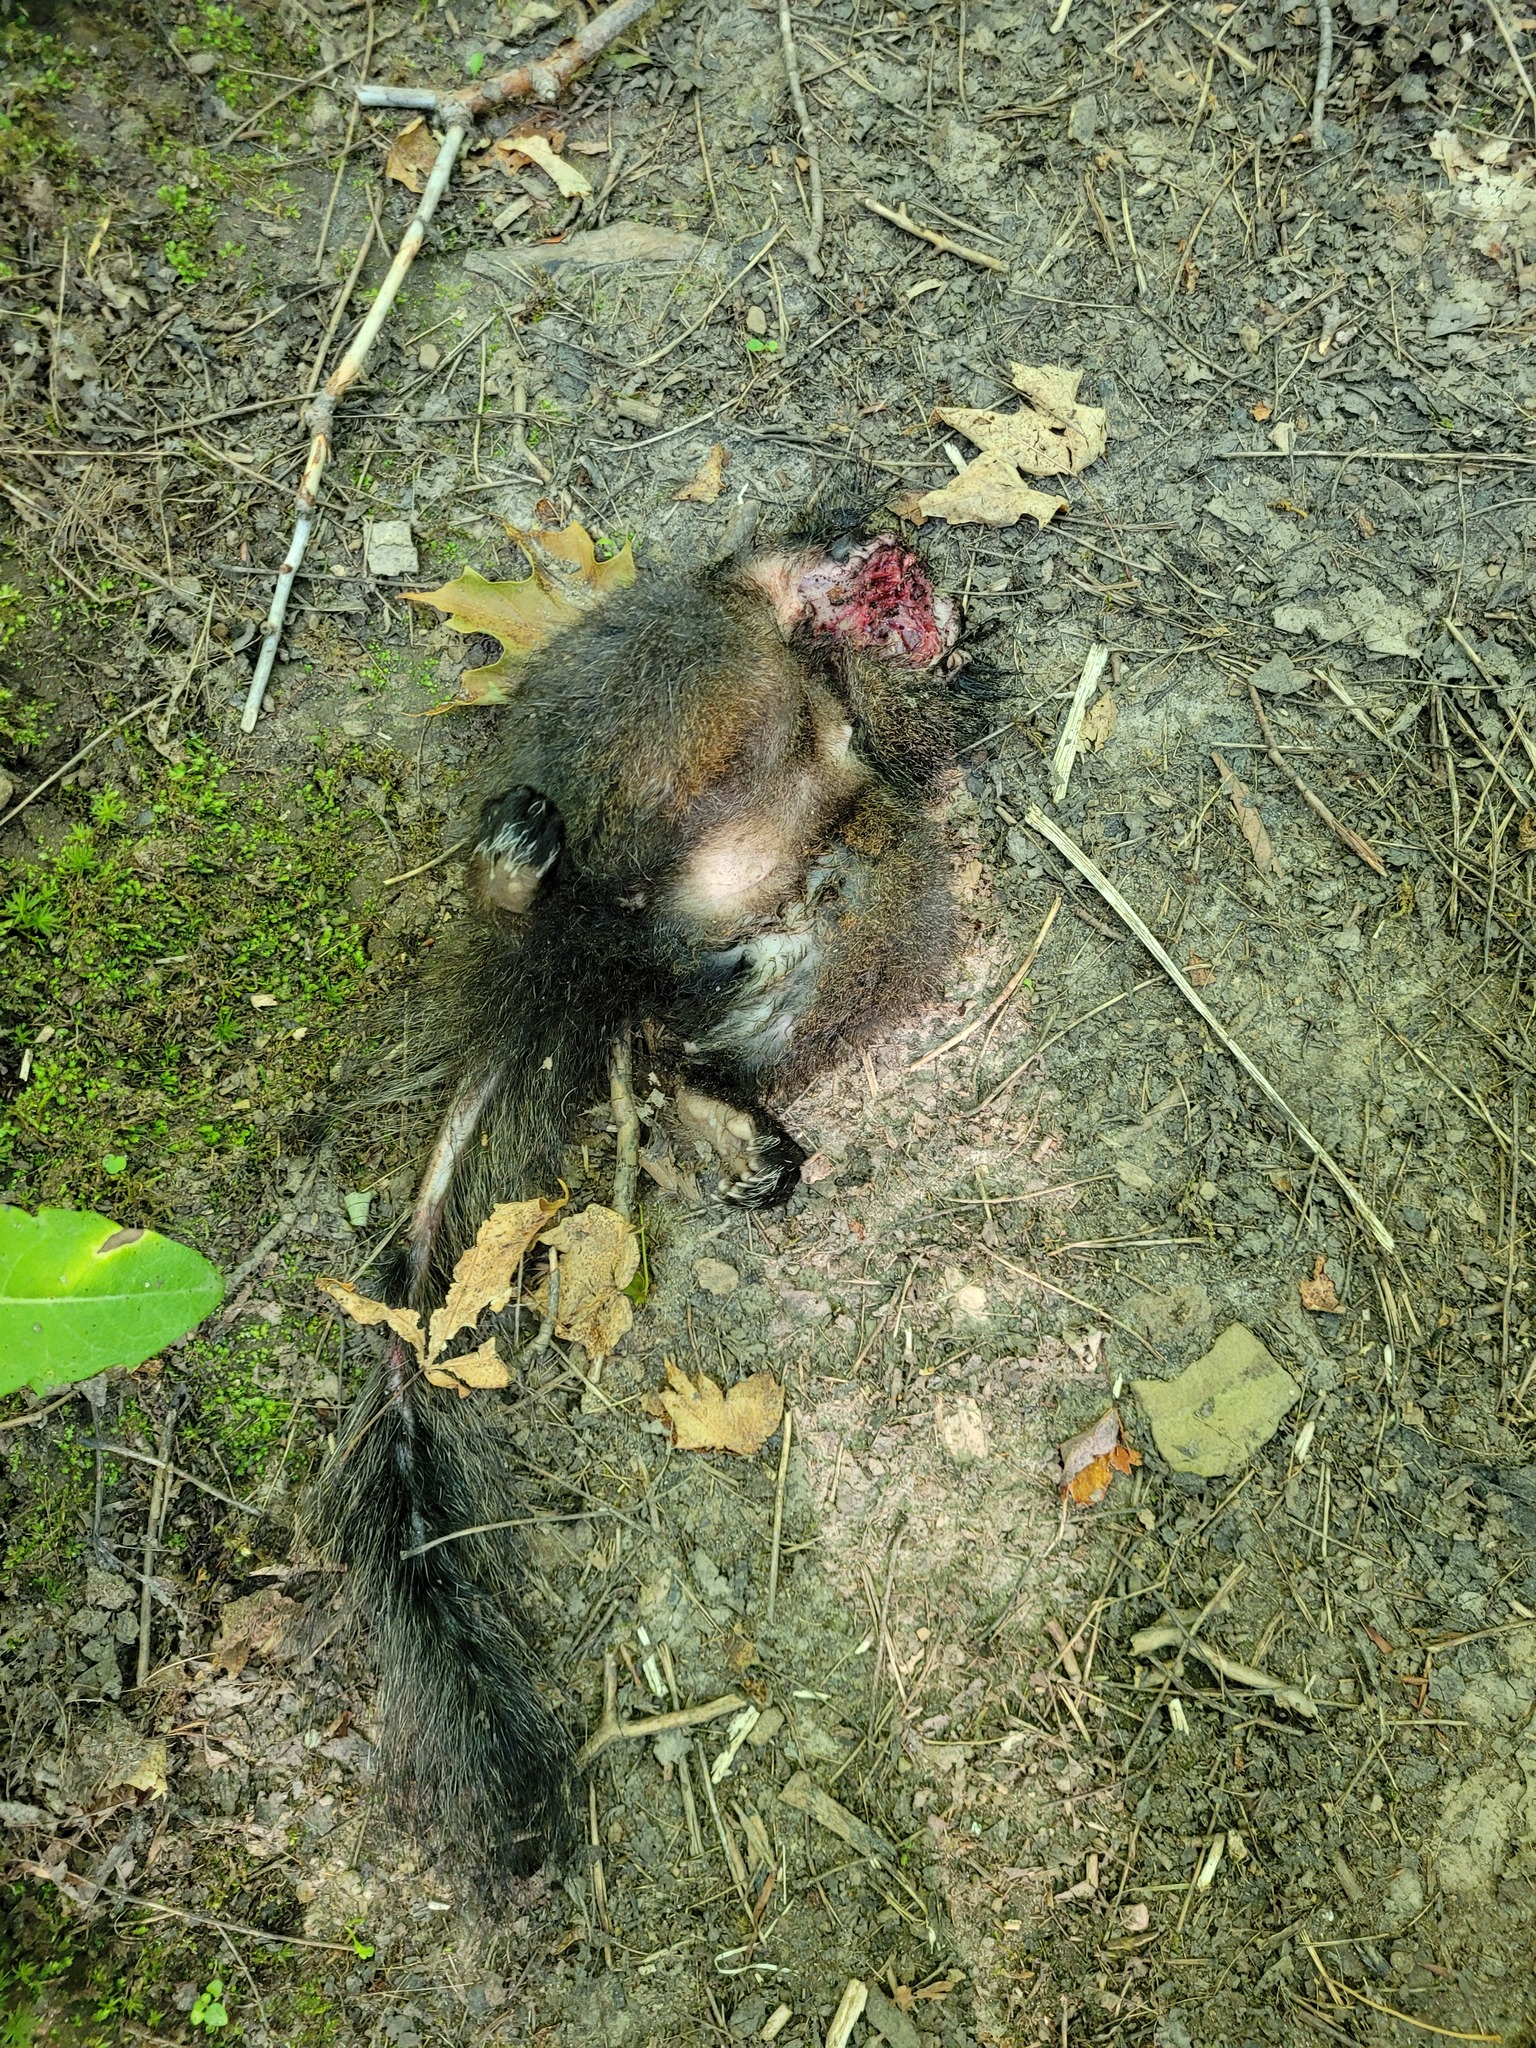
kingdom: Animalia
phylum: Chordata
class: Mammalia
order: Rodentia
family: Sciuridae
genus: Sciurus
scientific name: Sciurus carolinensis
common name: Eastern gray squirrel
